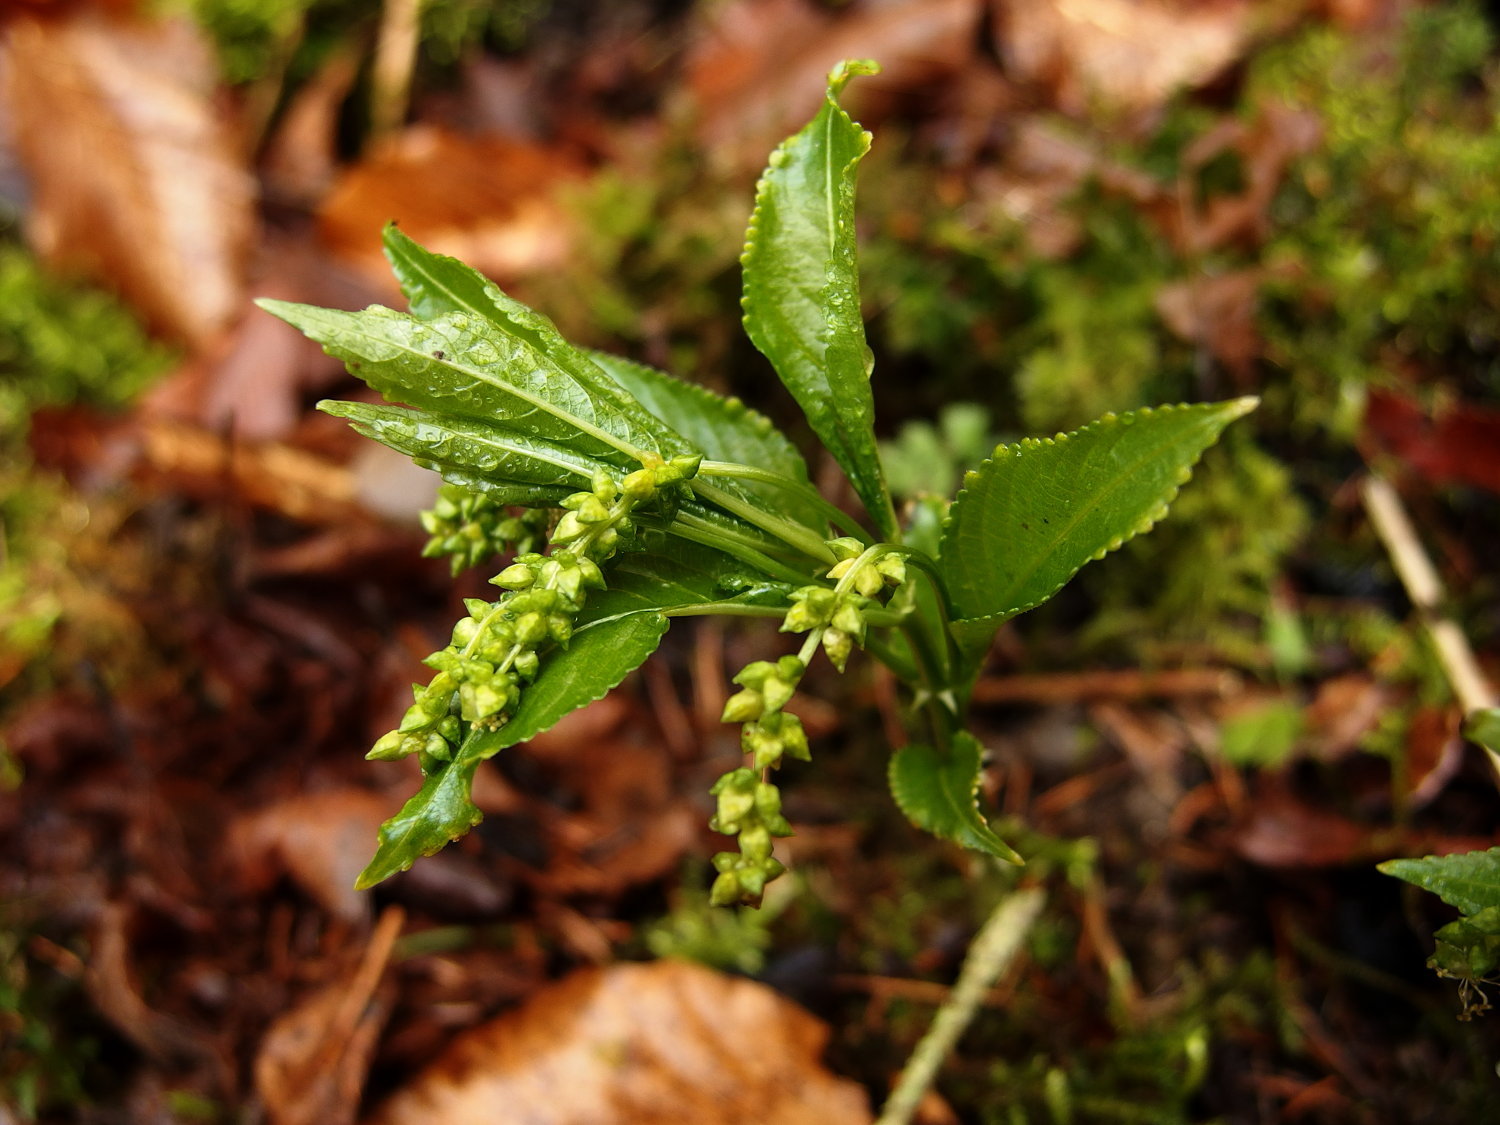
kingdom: Plantae
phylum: Tracheophyta
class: Magnoliopsida
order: Malpighiales
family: Euphorbiaceae
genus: Mercurialis
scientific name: Mercurialis perennis
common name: Dog mercury
